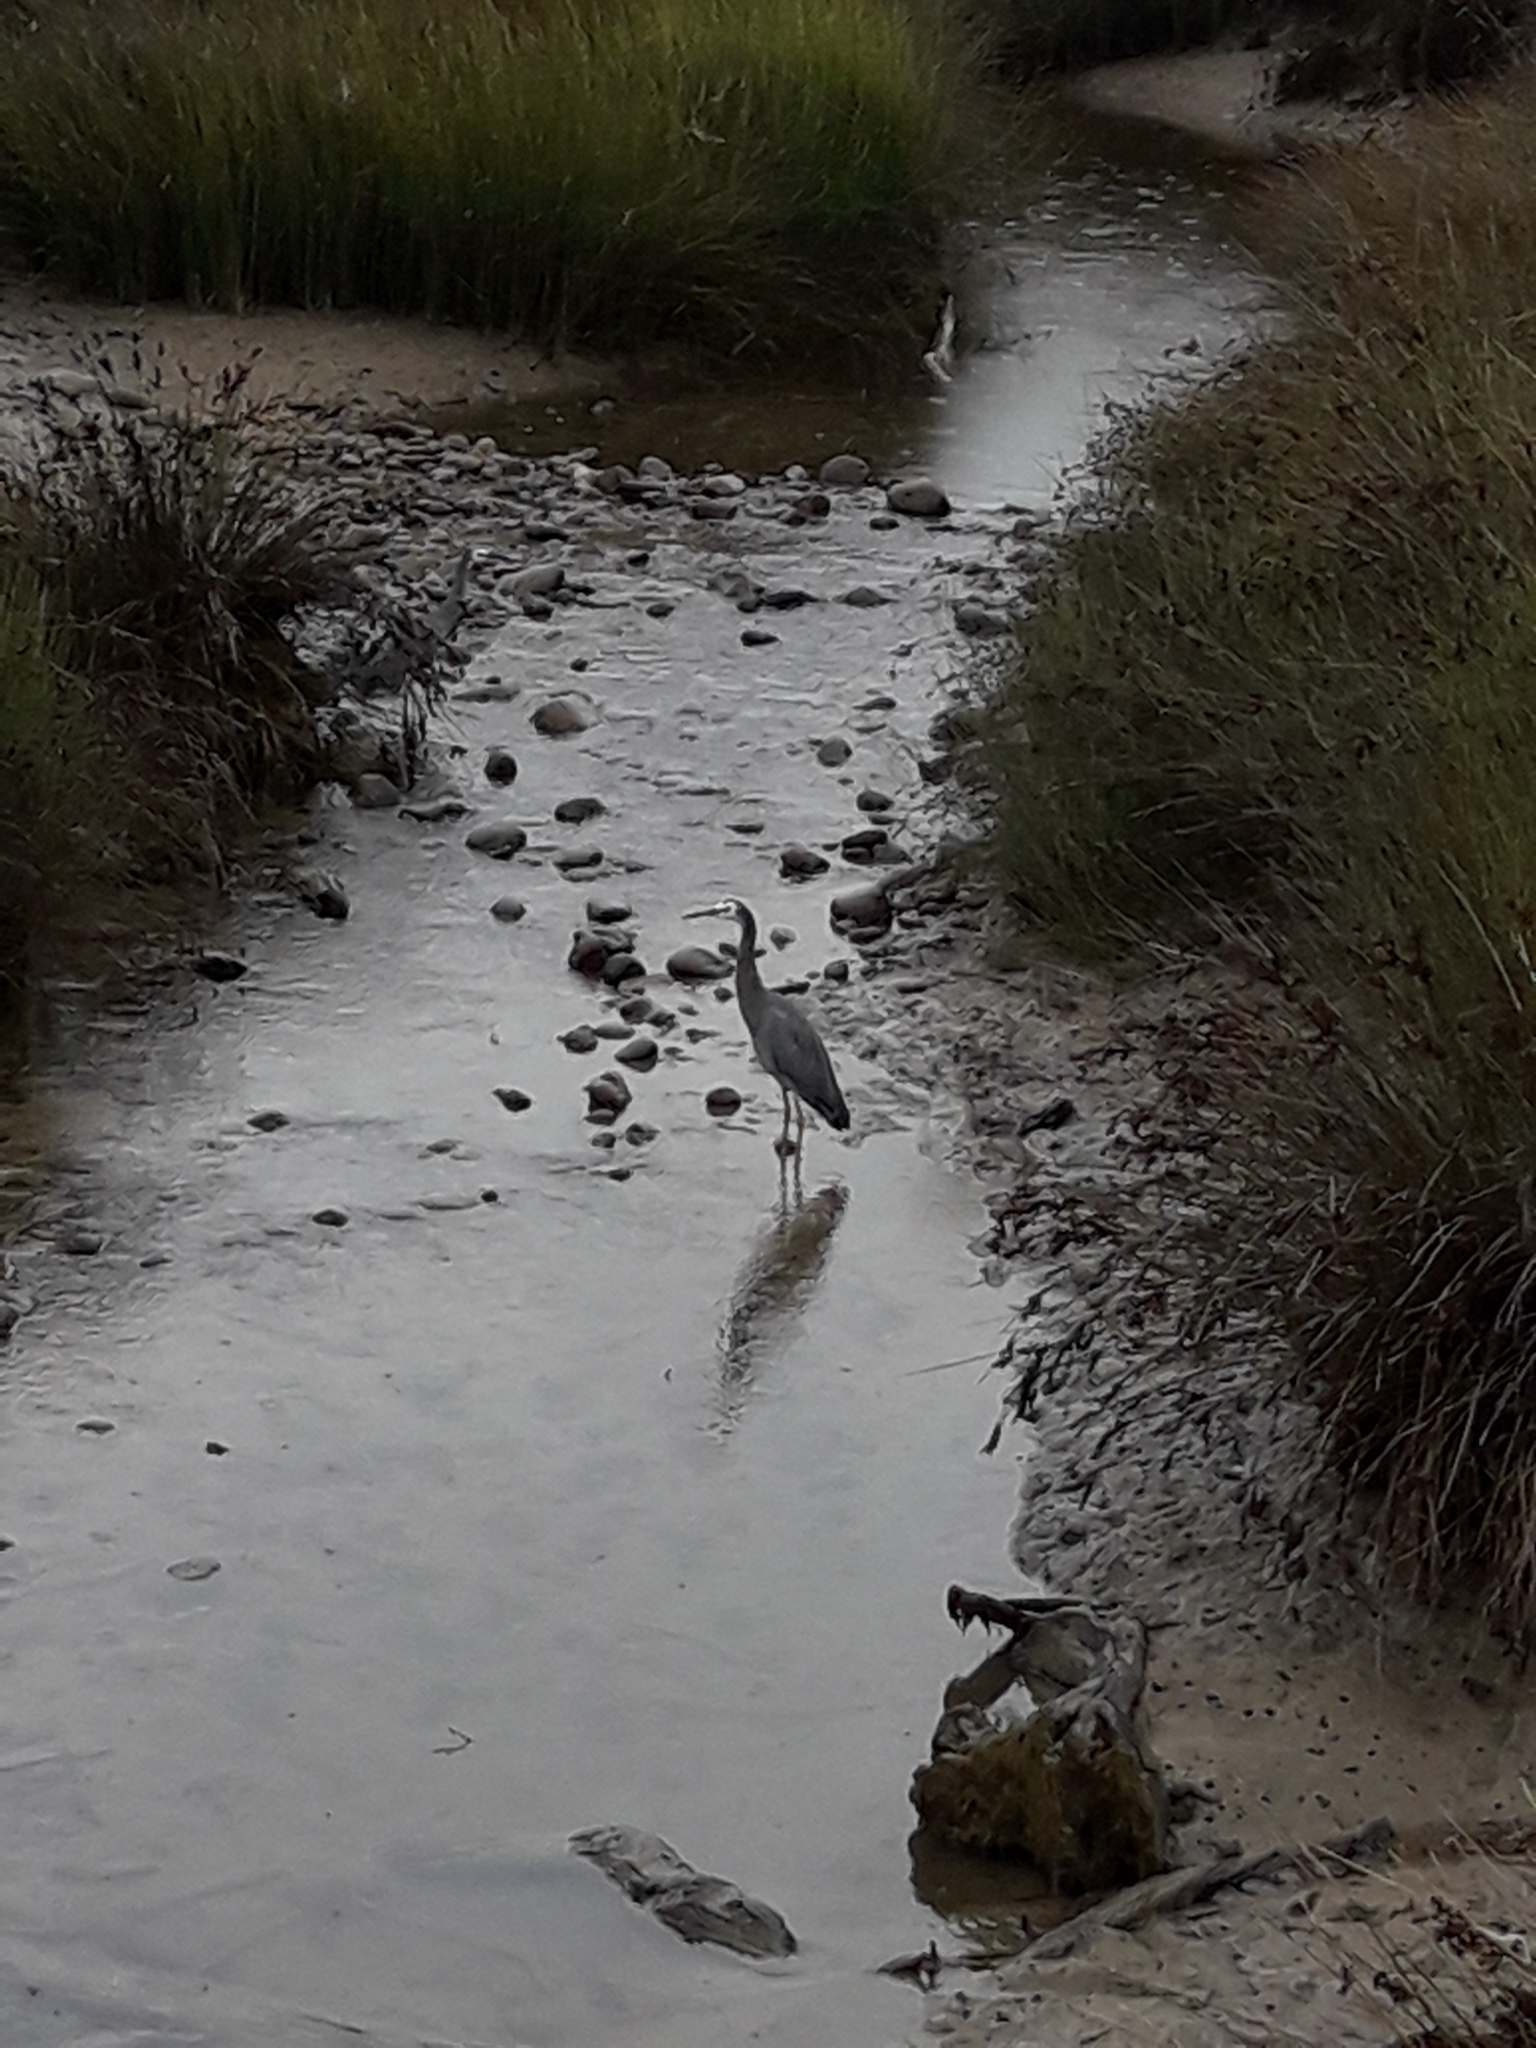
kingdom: Animalia
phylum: Chordata
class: Aves
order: Pelecaniformes
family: Ardeidae
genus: Egretta
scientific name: Egretta novaehollandiae
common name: White-faced heron
